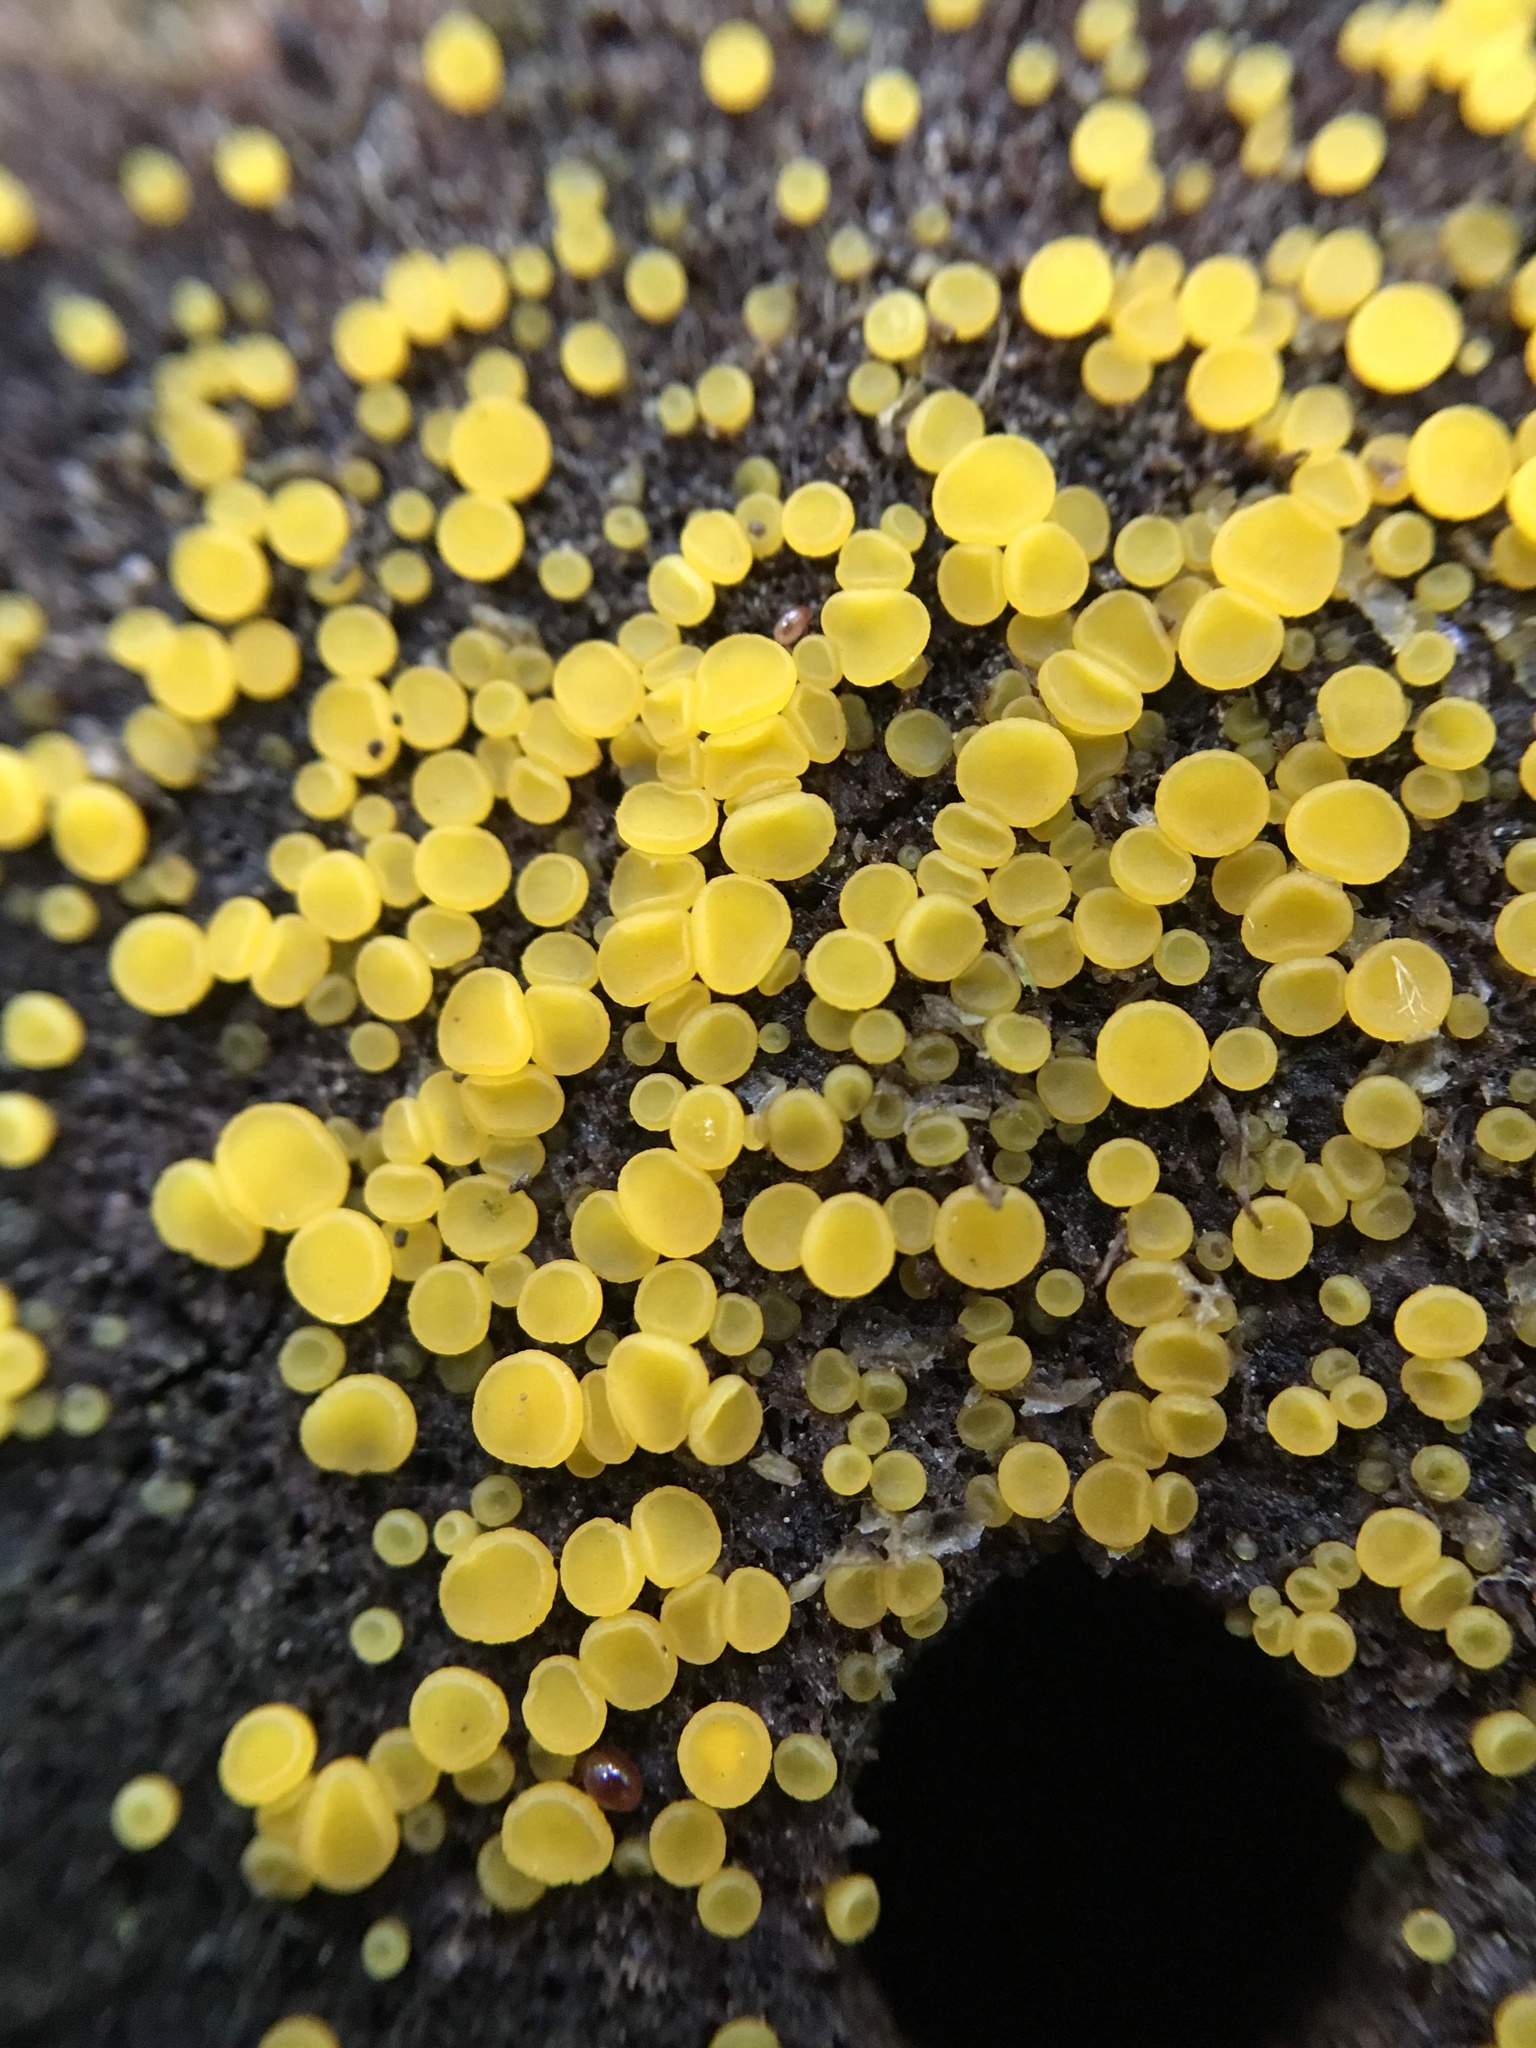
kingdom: Fungi
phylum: Ascomycota
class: Leotiomycetes
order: Helotiales
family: Pezizellaceae
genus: Calycina
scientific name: Calycina citrina
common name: Yellow fairy cups
